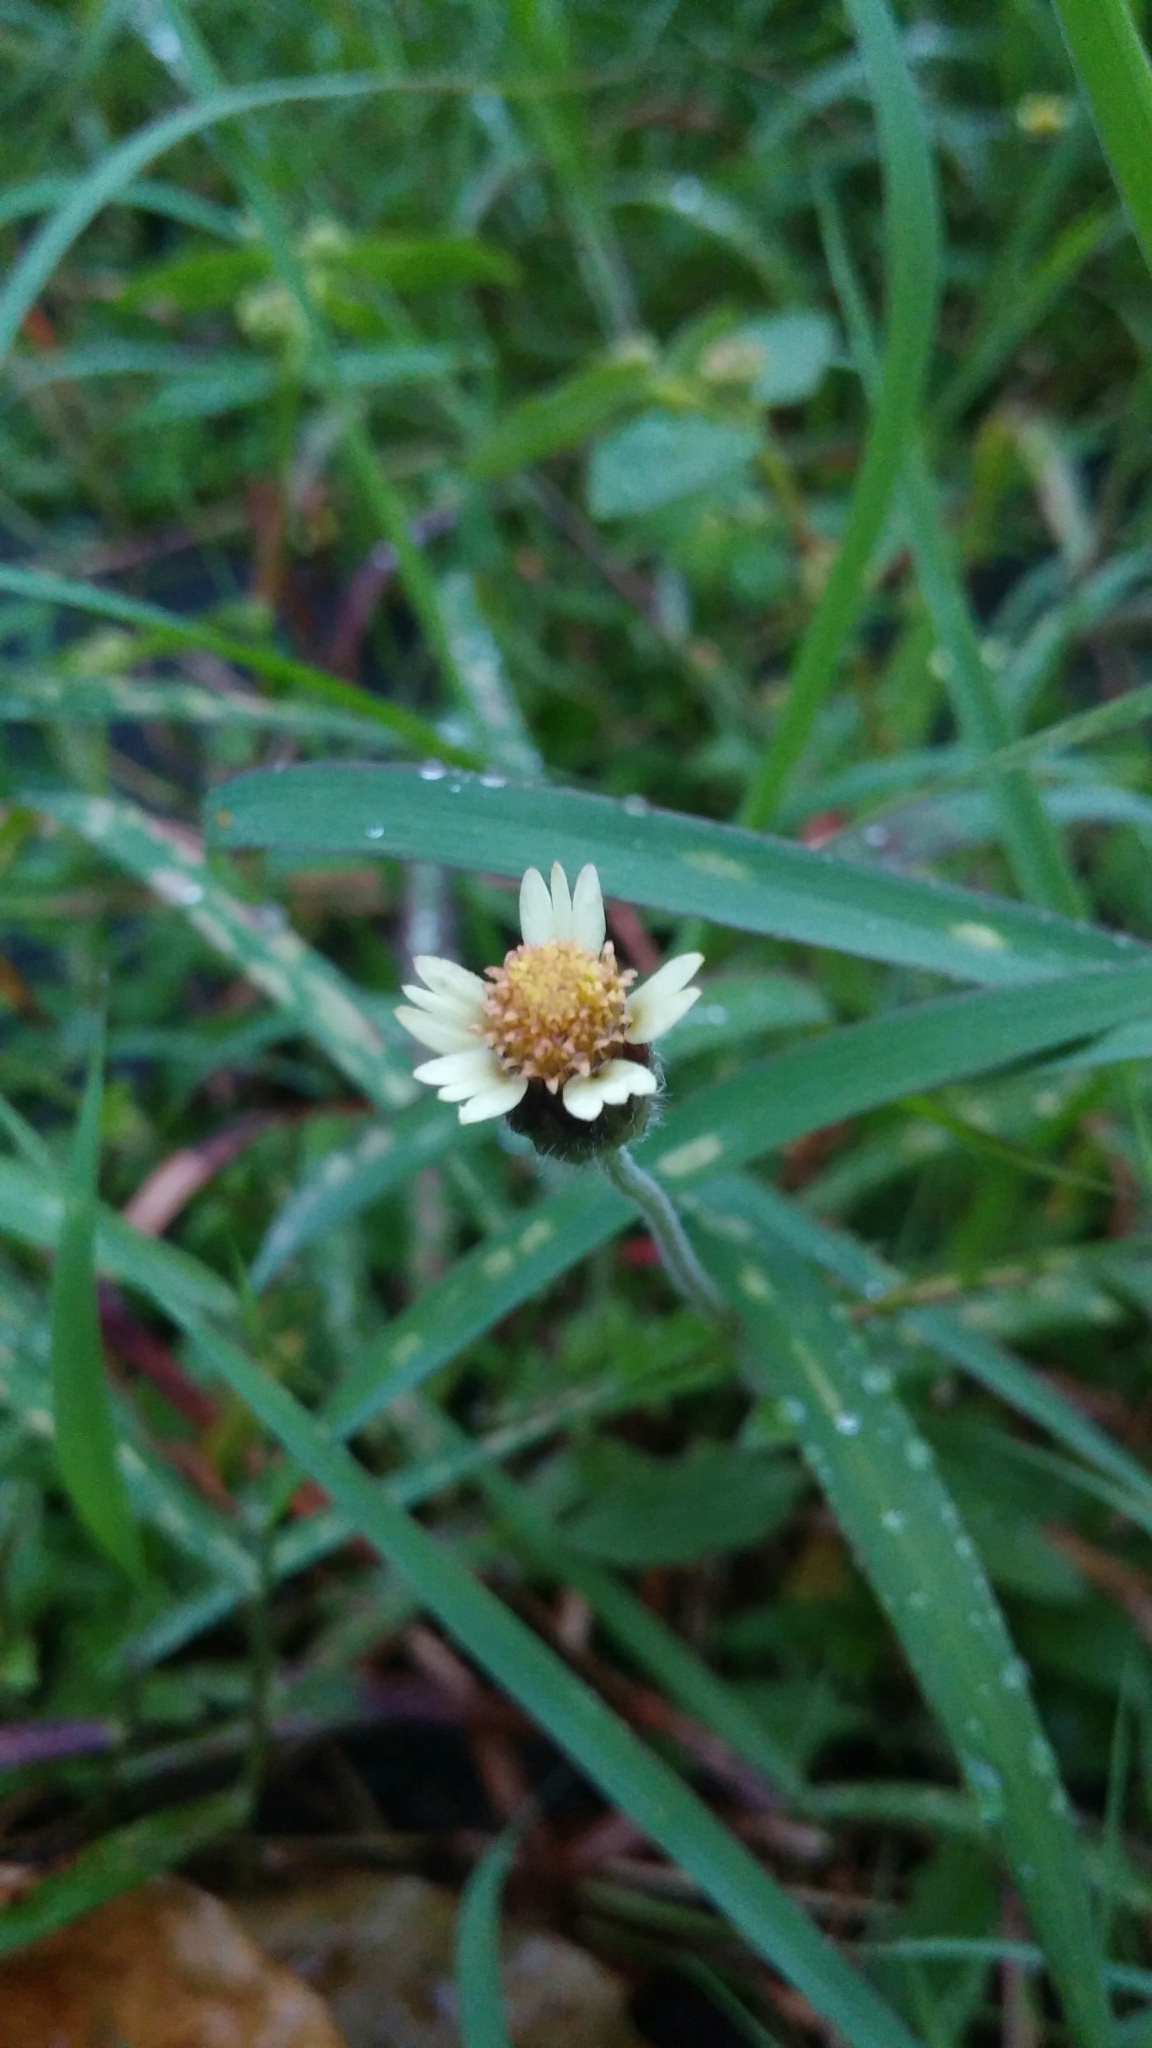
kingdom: Plantae
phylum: Tracheophyta
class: Magnoliopsida
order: Asterales
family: Asteraceae
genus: Tridax
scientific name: Tridax procumbens
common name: Coatbuttons
